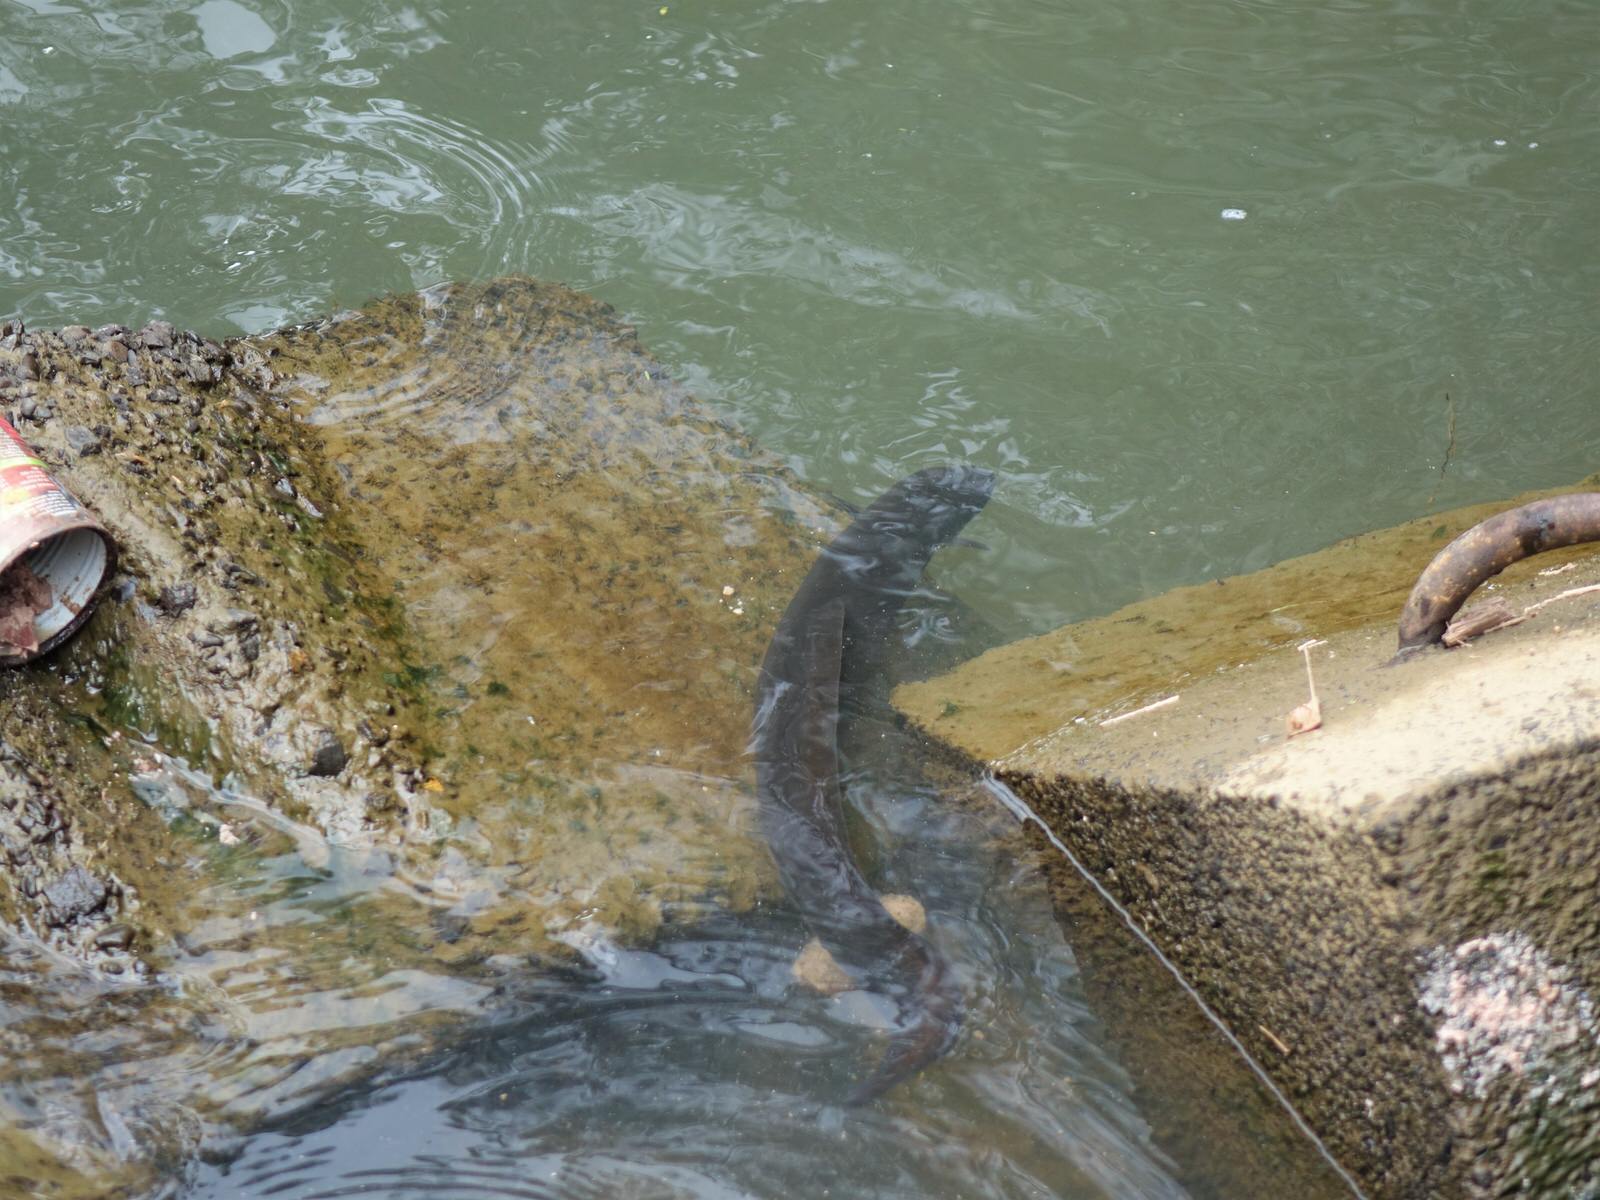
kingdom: Animalia
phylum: Chordata
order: Anguilliformes
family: Anguillidae
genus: Anguilla
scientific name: Anguilla dieffenbachii
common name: New zealand longfin eel
